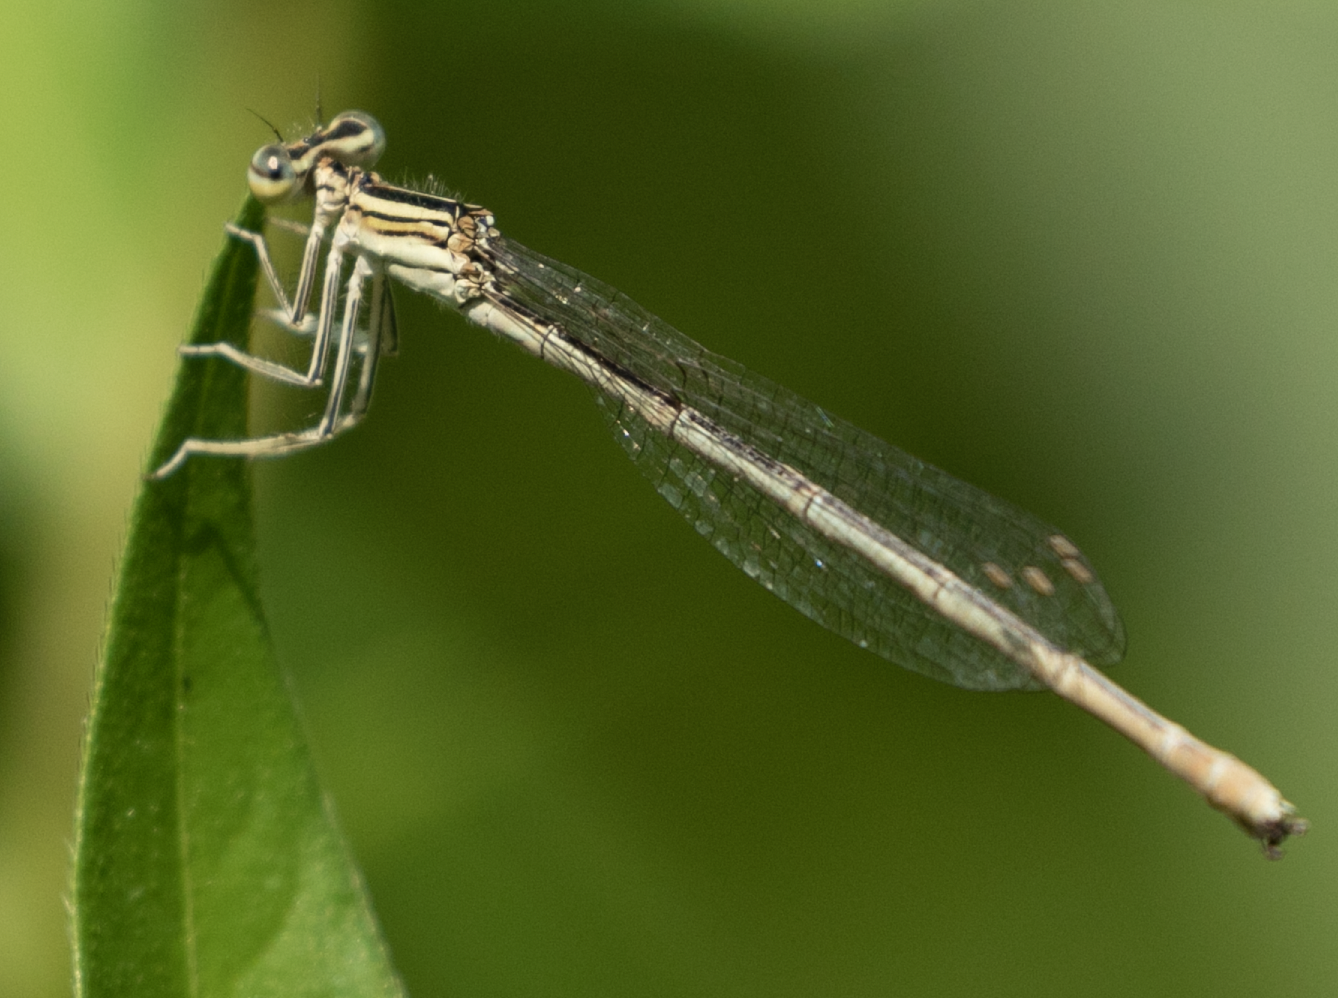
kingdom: Animalia
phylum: Arthropoda
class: Insecta
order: Odonata
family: Platycnemididae
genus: Platycnemis
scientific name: Platycnemis pennipes
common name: White-legged damselfly
